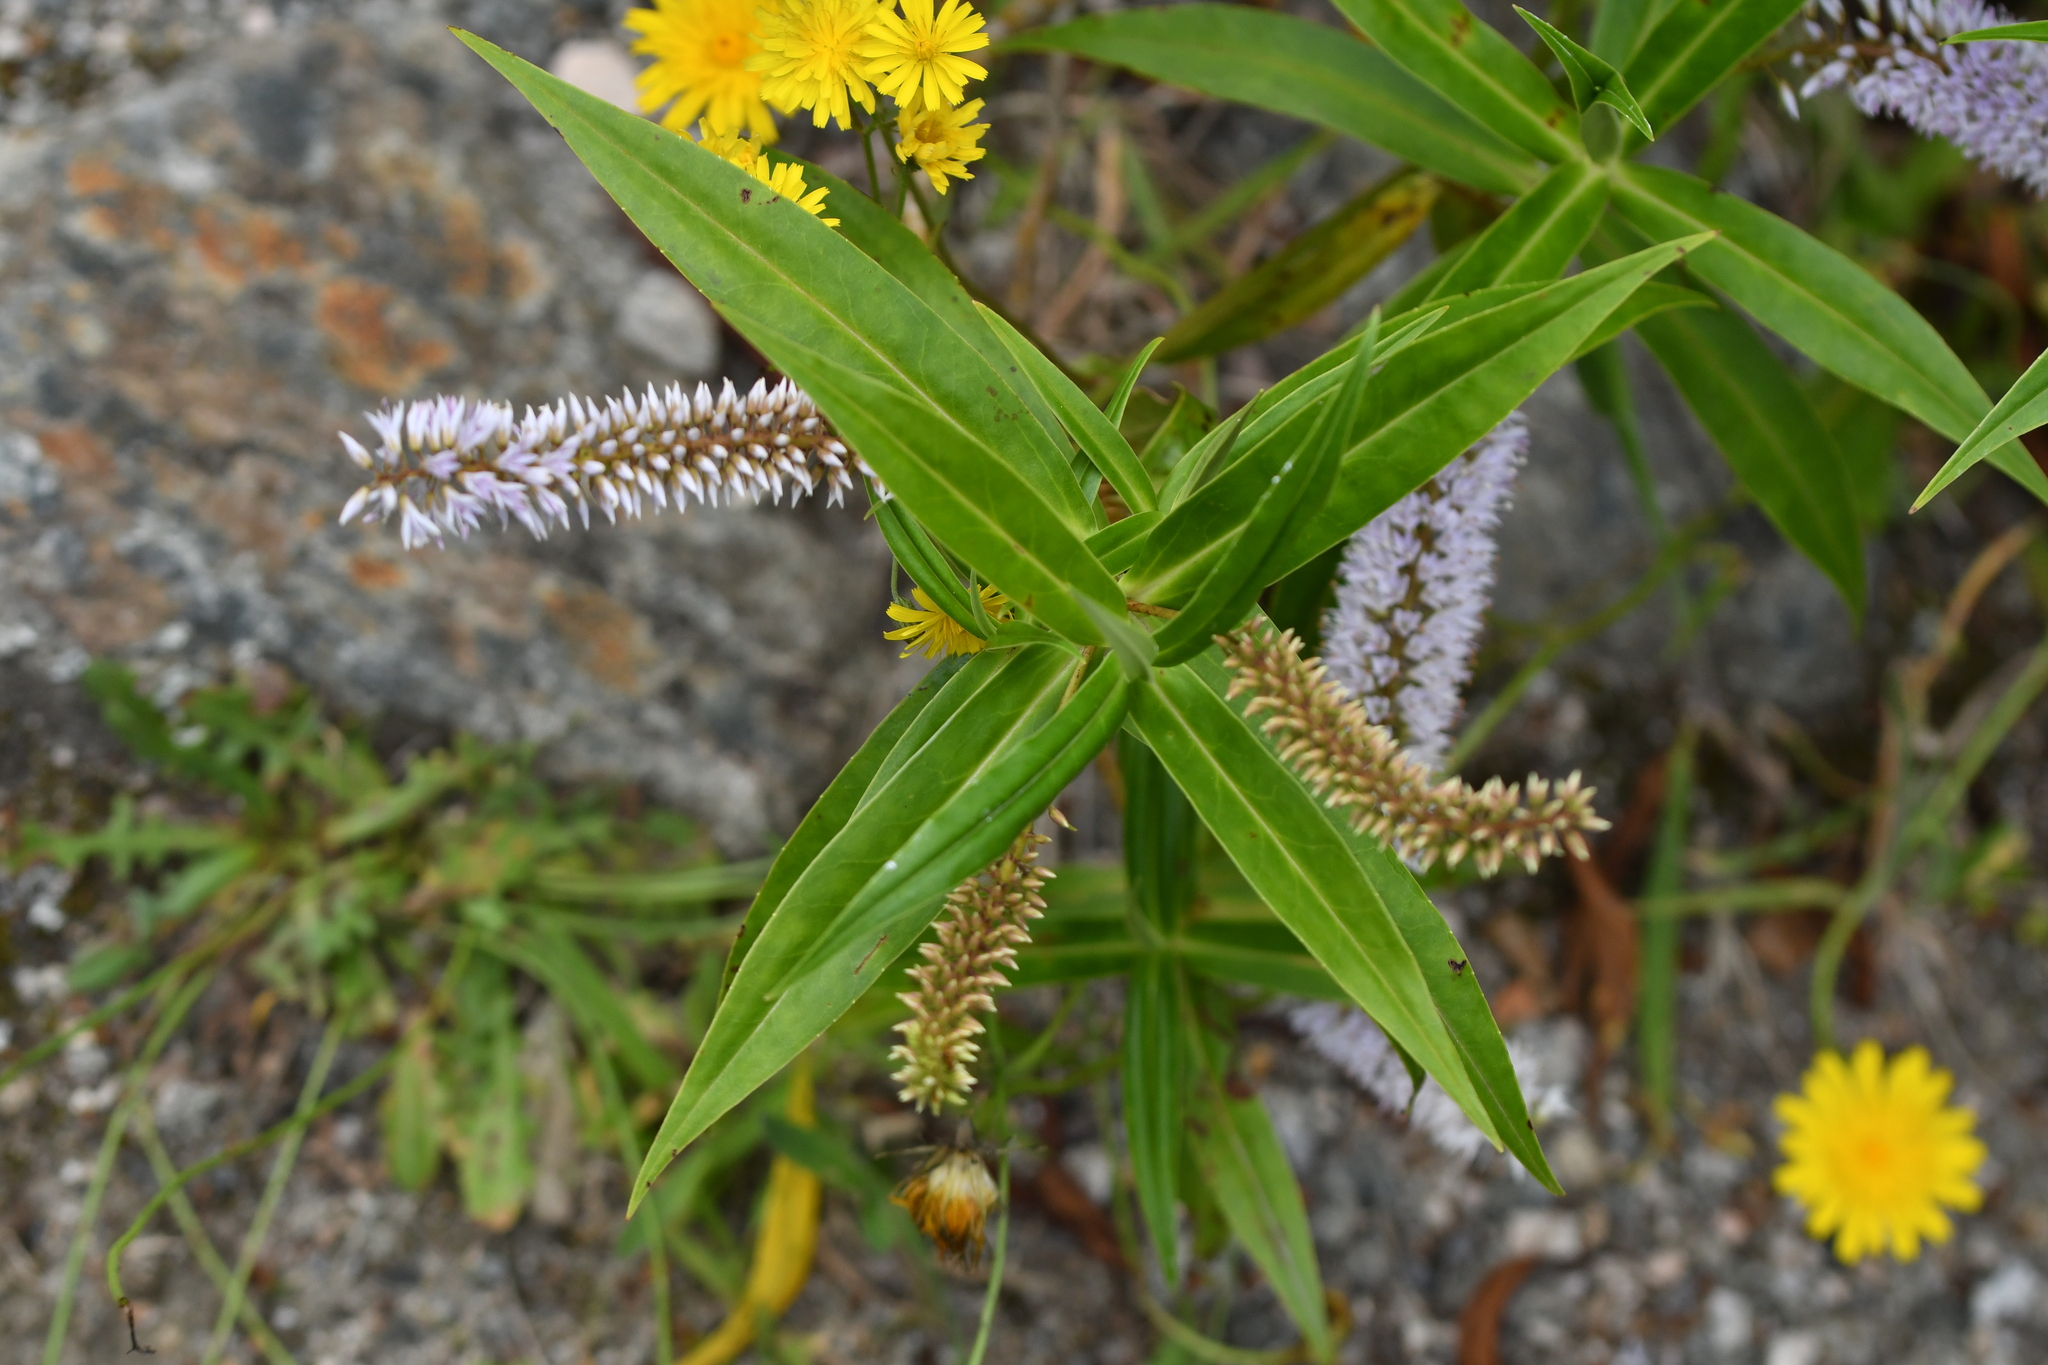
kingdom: Plantae
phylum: Tracheophyta
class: Magnoliopsida
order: Lamiales
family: Plantaginaceae
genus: Veronica
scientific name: Veronica salicifolia
